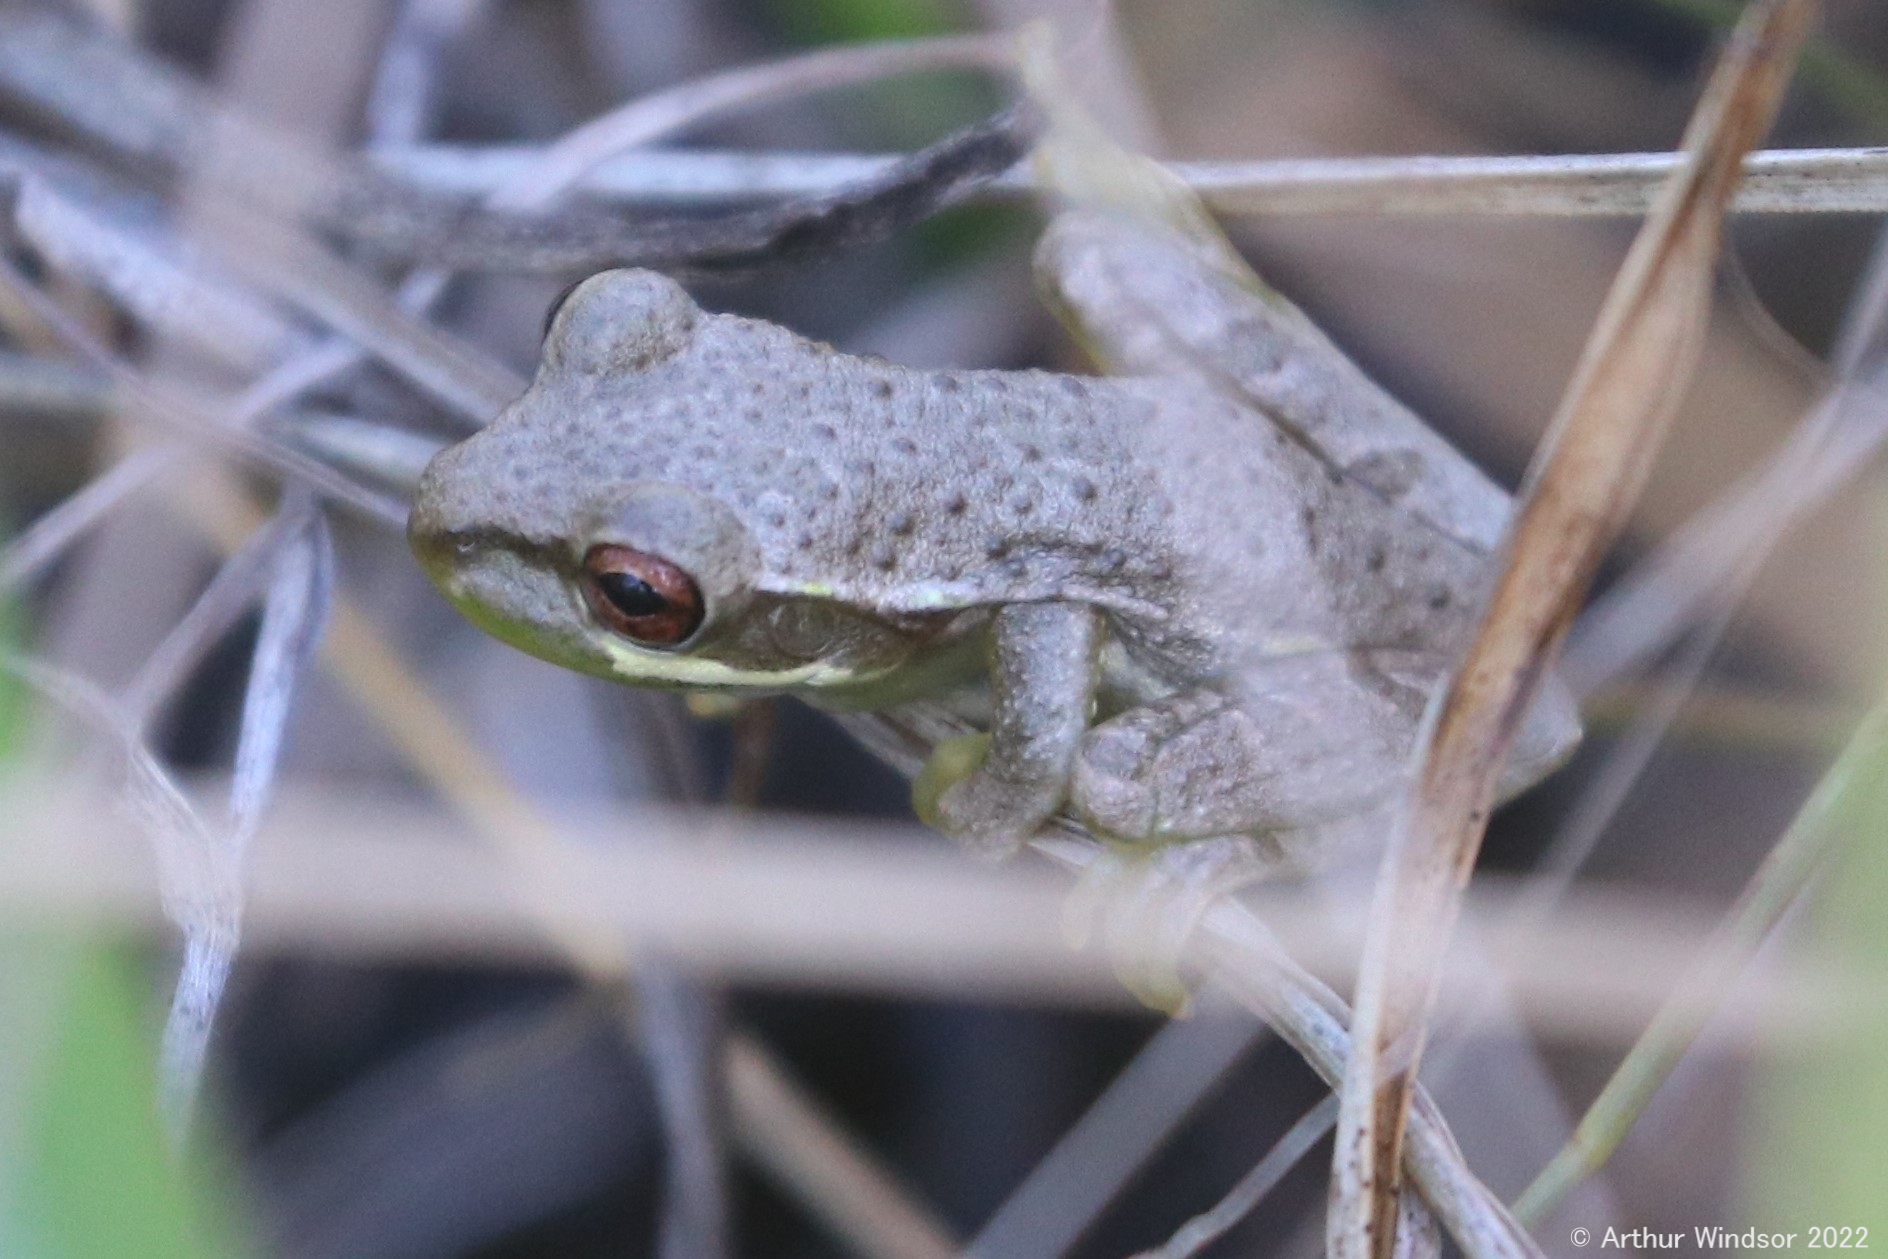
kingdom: Animalia
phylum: Chordata
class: Amphibia
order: Anura
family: Hylidae
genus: Osteopilus
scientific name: Osteopilus septentrionalis
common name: Cuban treefrog
